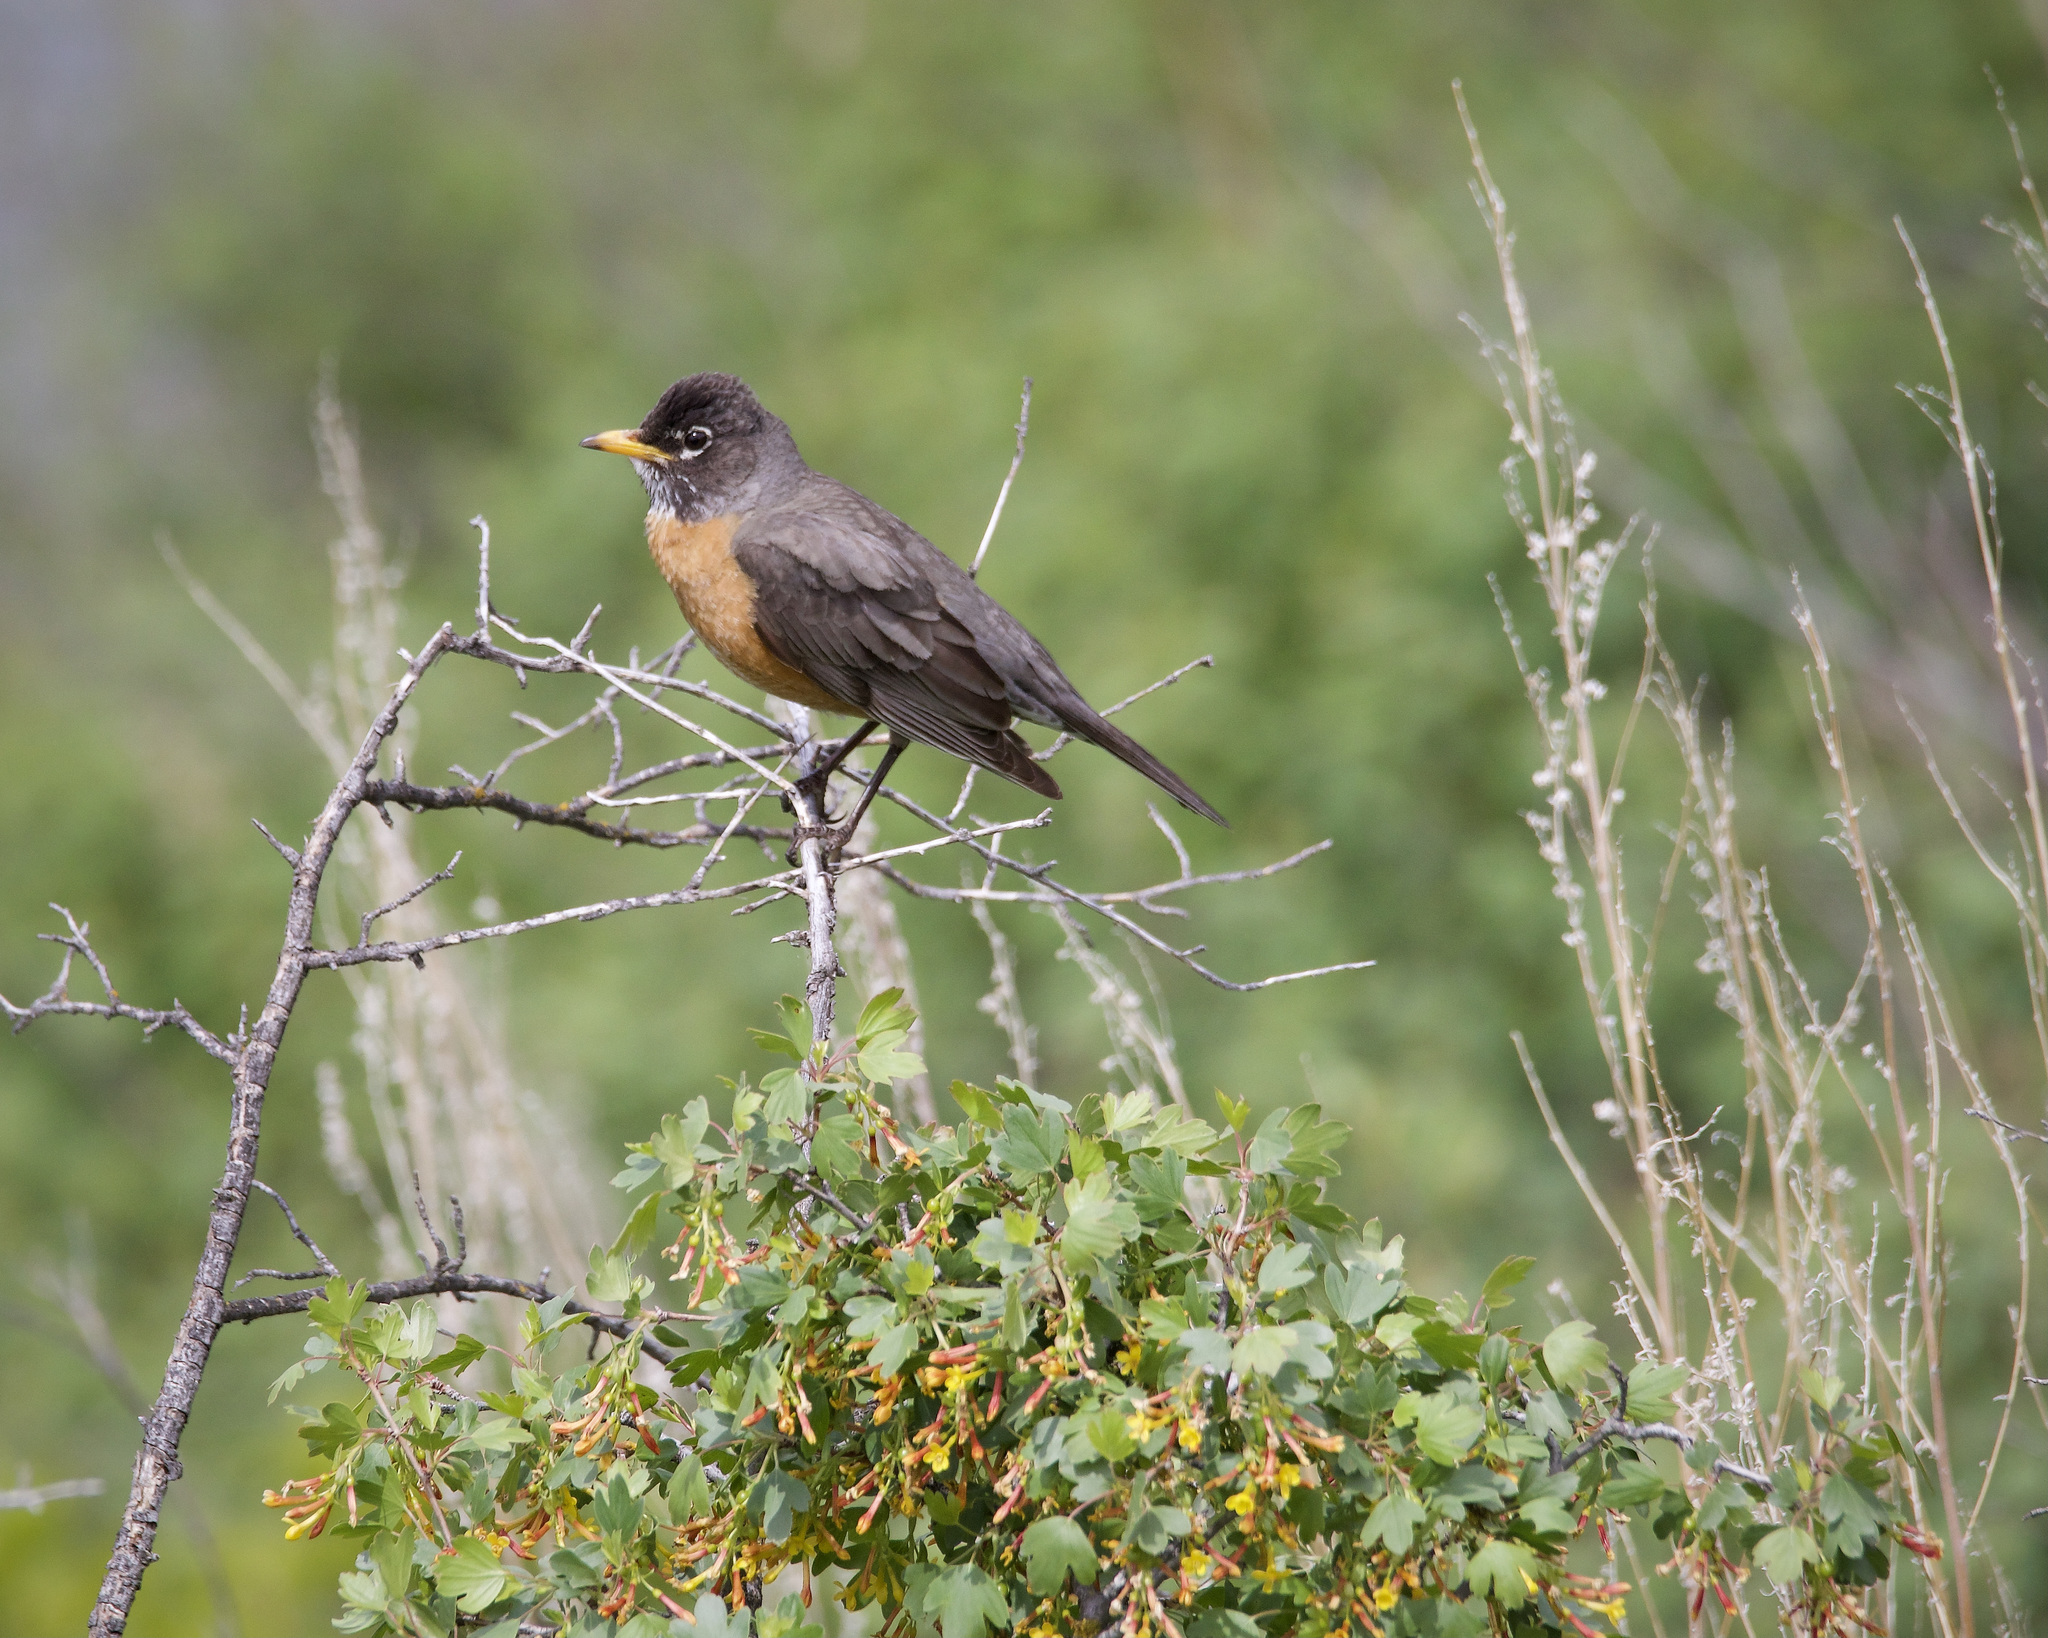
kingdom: Animalia
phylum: Chordata
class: Aves
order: Passeriformes
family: Turdidae
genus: Turdus
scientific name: Turdus migratorius
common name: American robin
